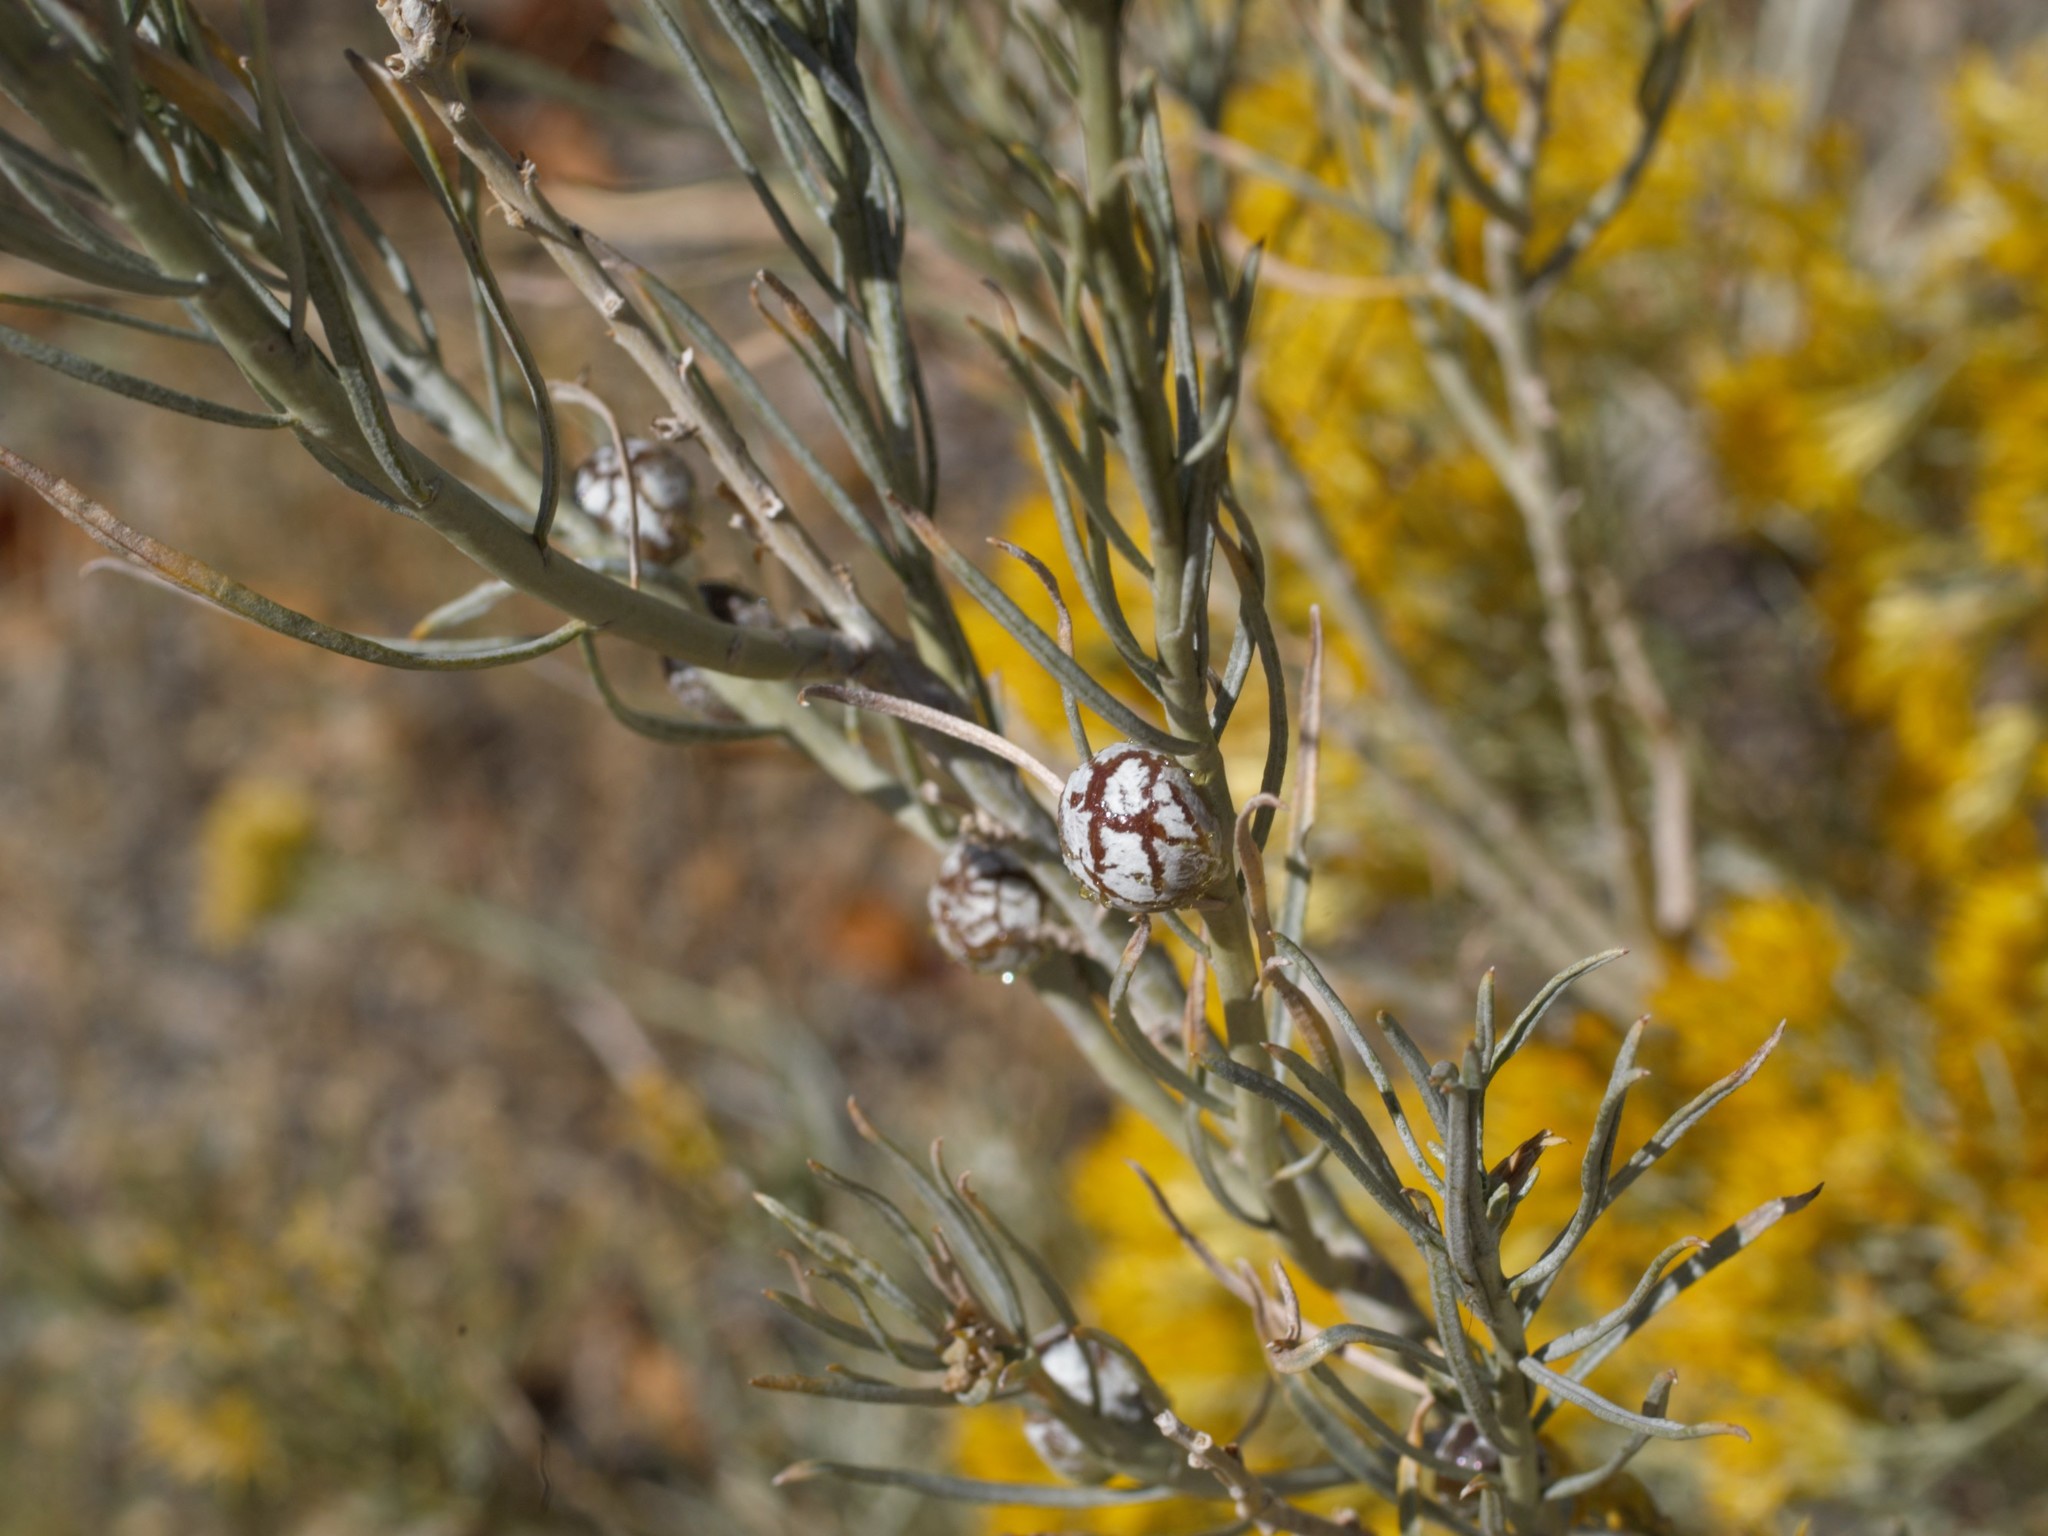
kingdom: Animalia
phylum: Arthropoda
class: Insecta
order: Diptera
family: Tephritidae
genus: Aciurina
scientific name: Aciurina trixa
